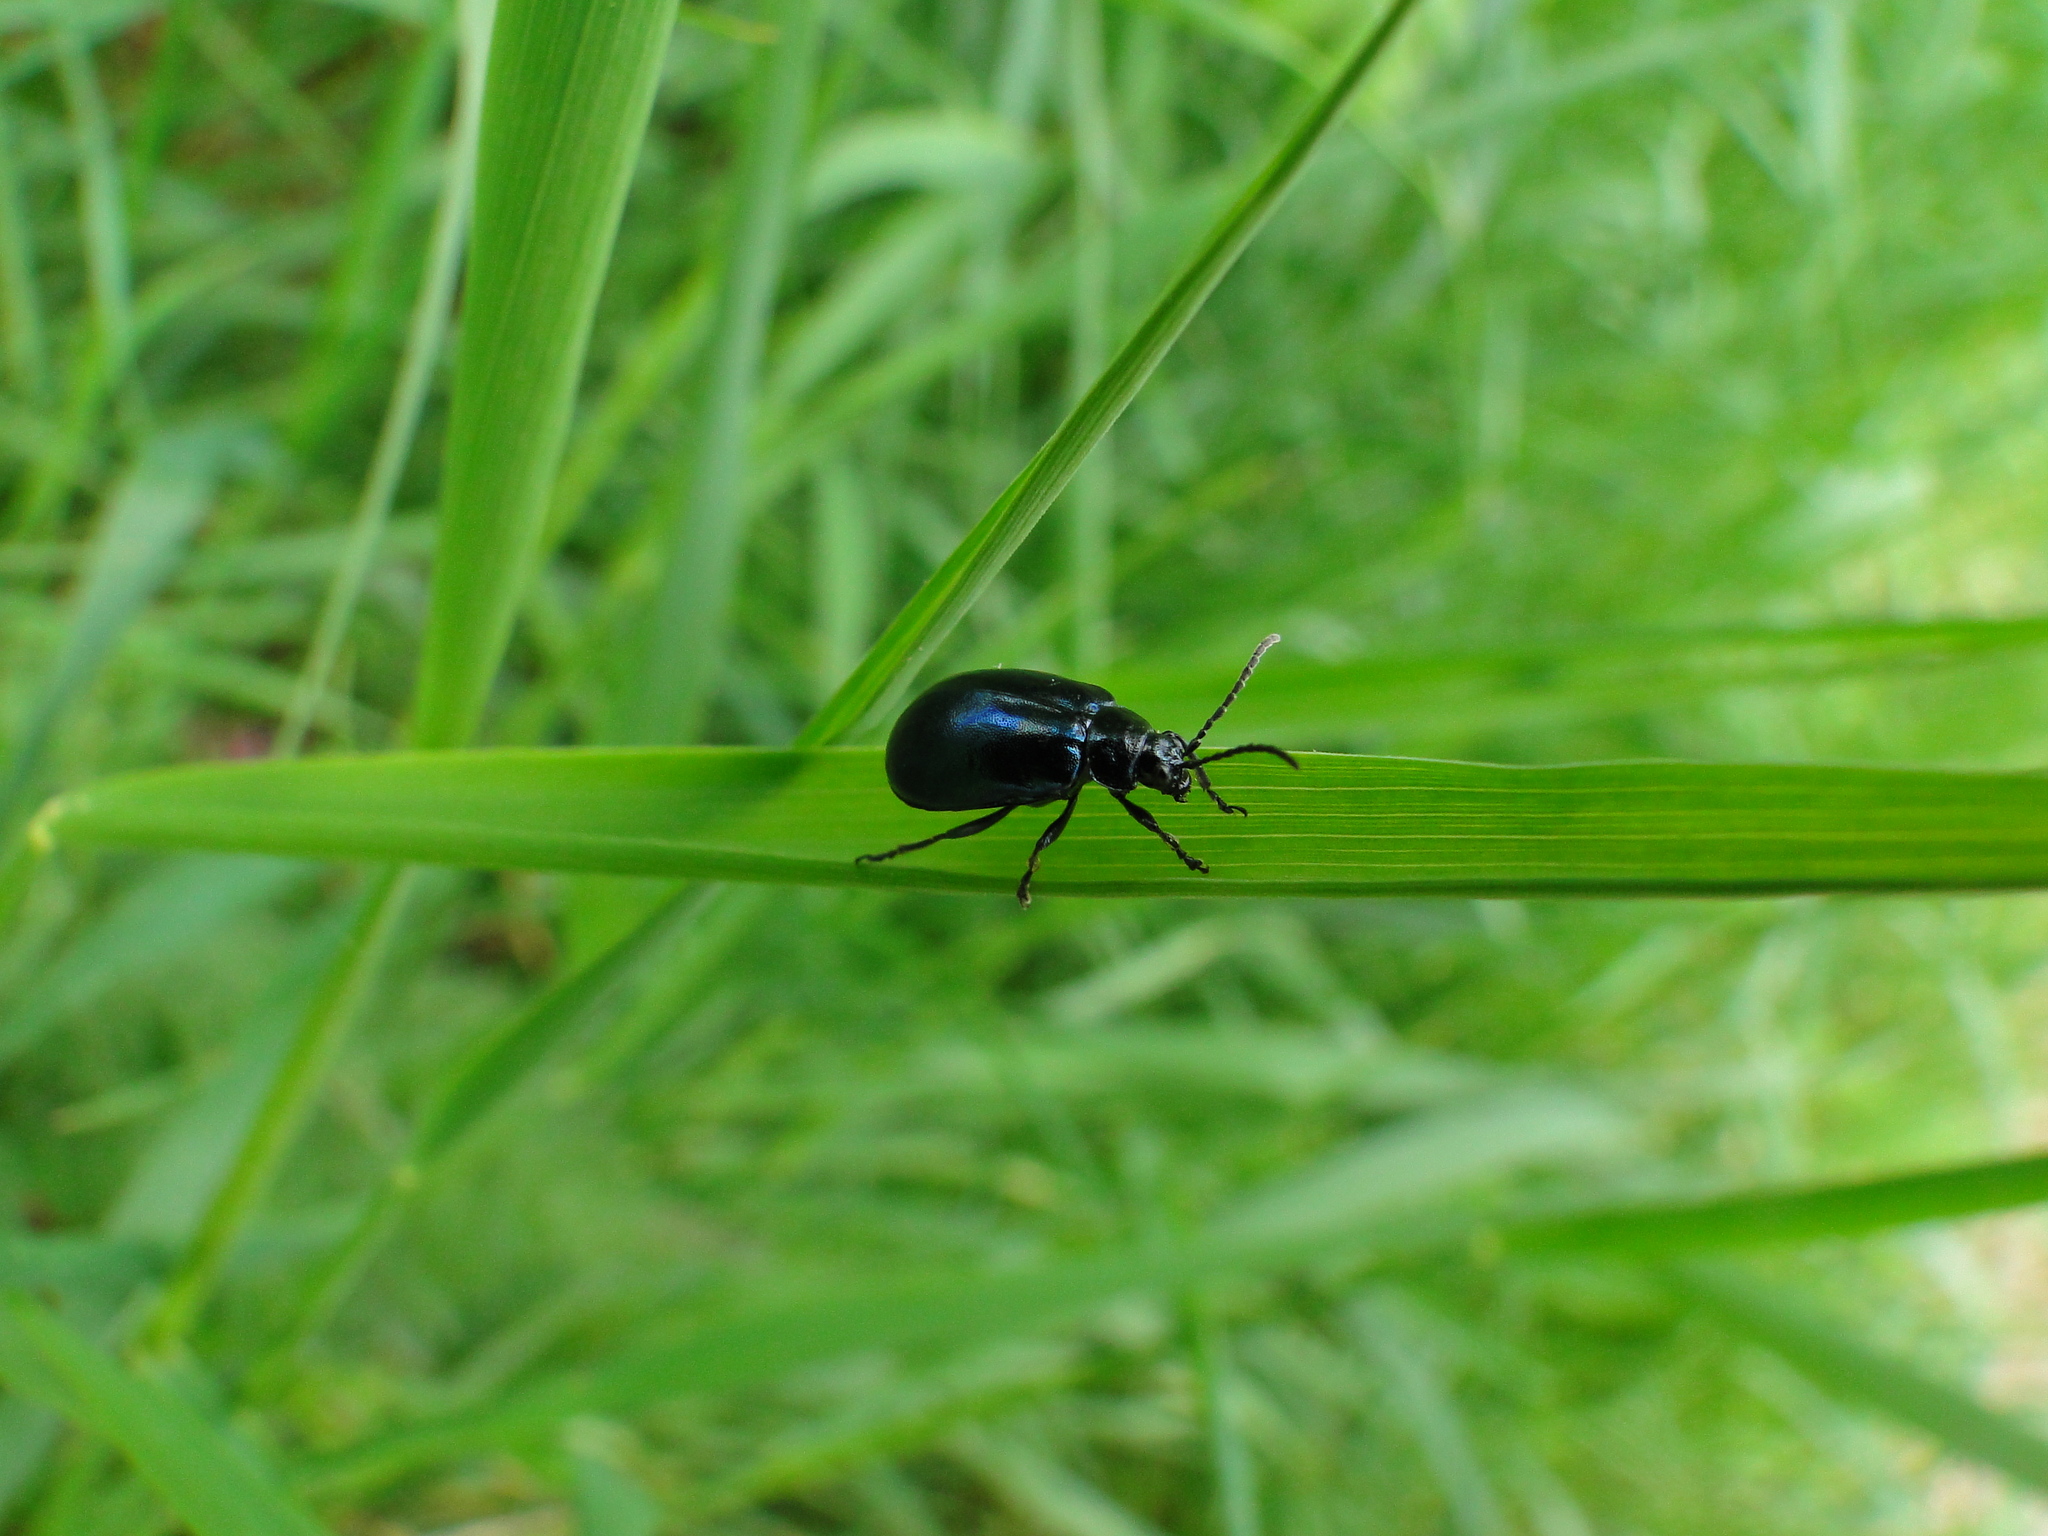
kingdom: Animalia
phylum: Arthropoda
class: Insecta
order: Coleoptera
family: Chrysomelidae
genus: Agelastica
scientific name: Agelastica alni
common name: Alder leaf beetle
